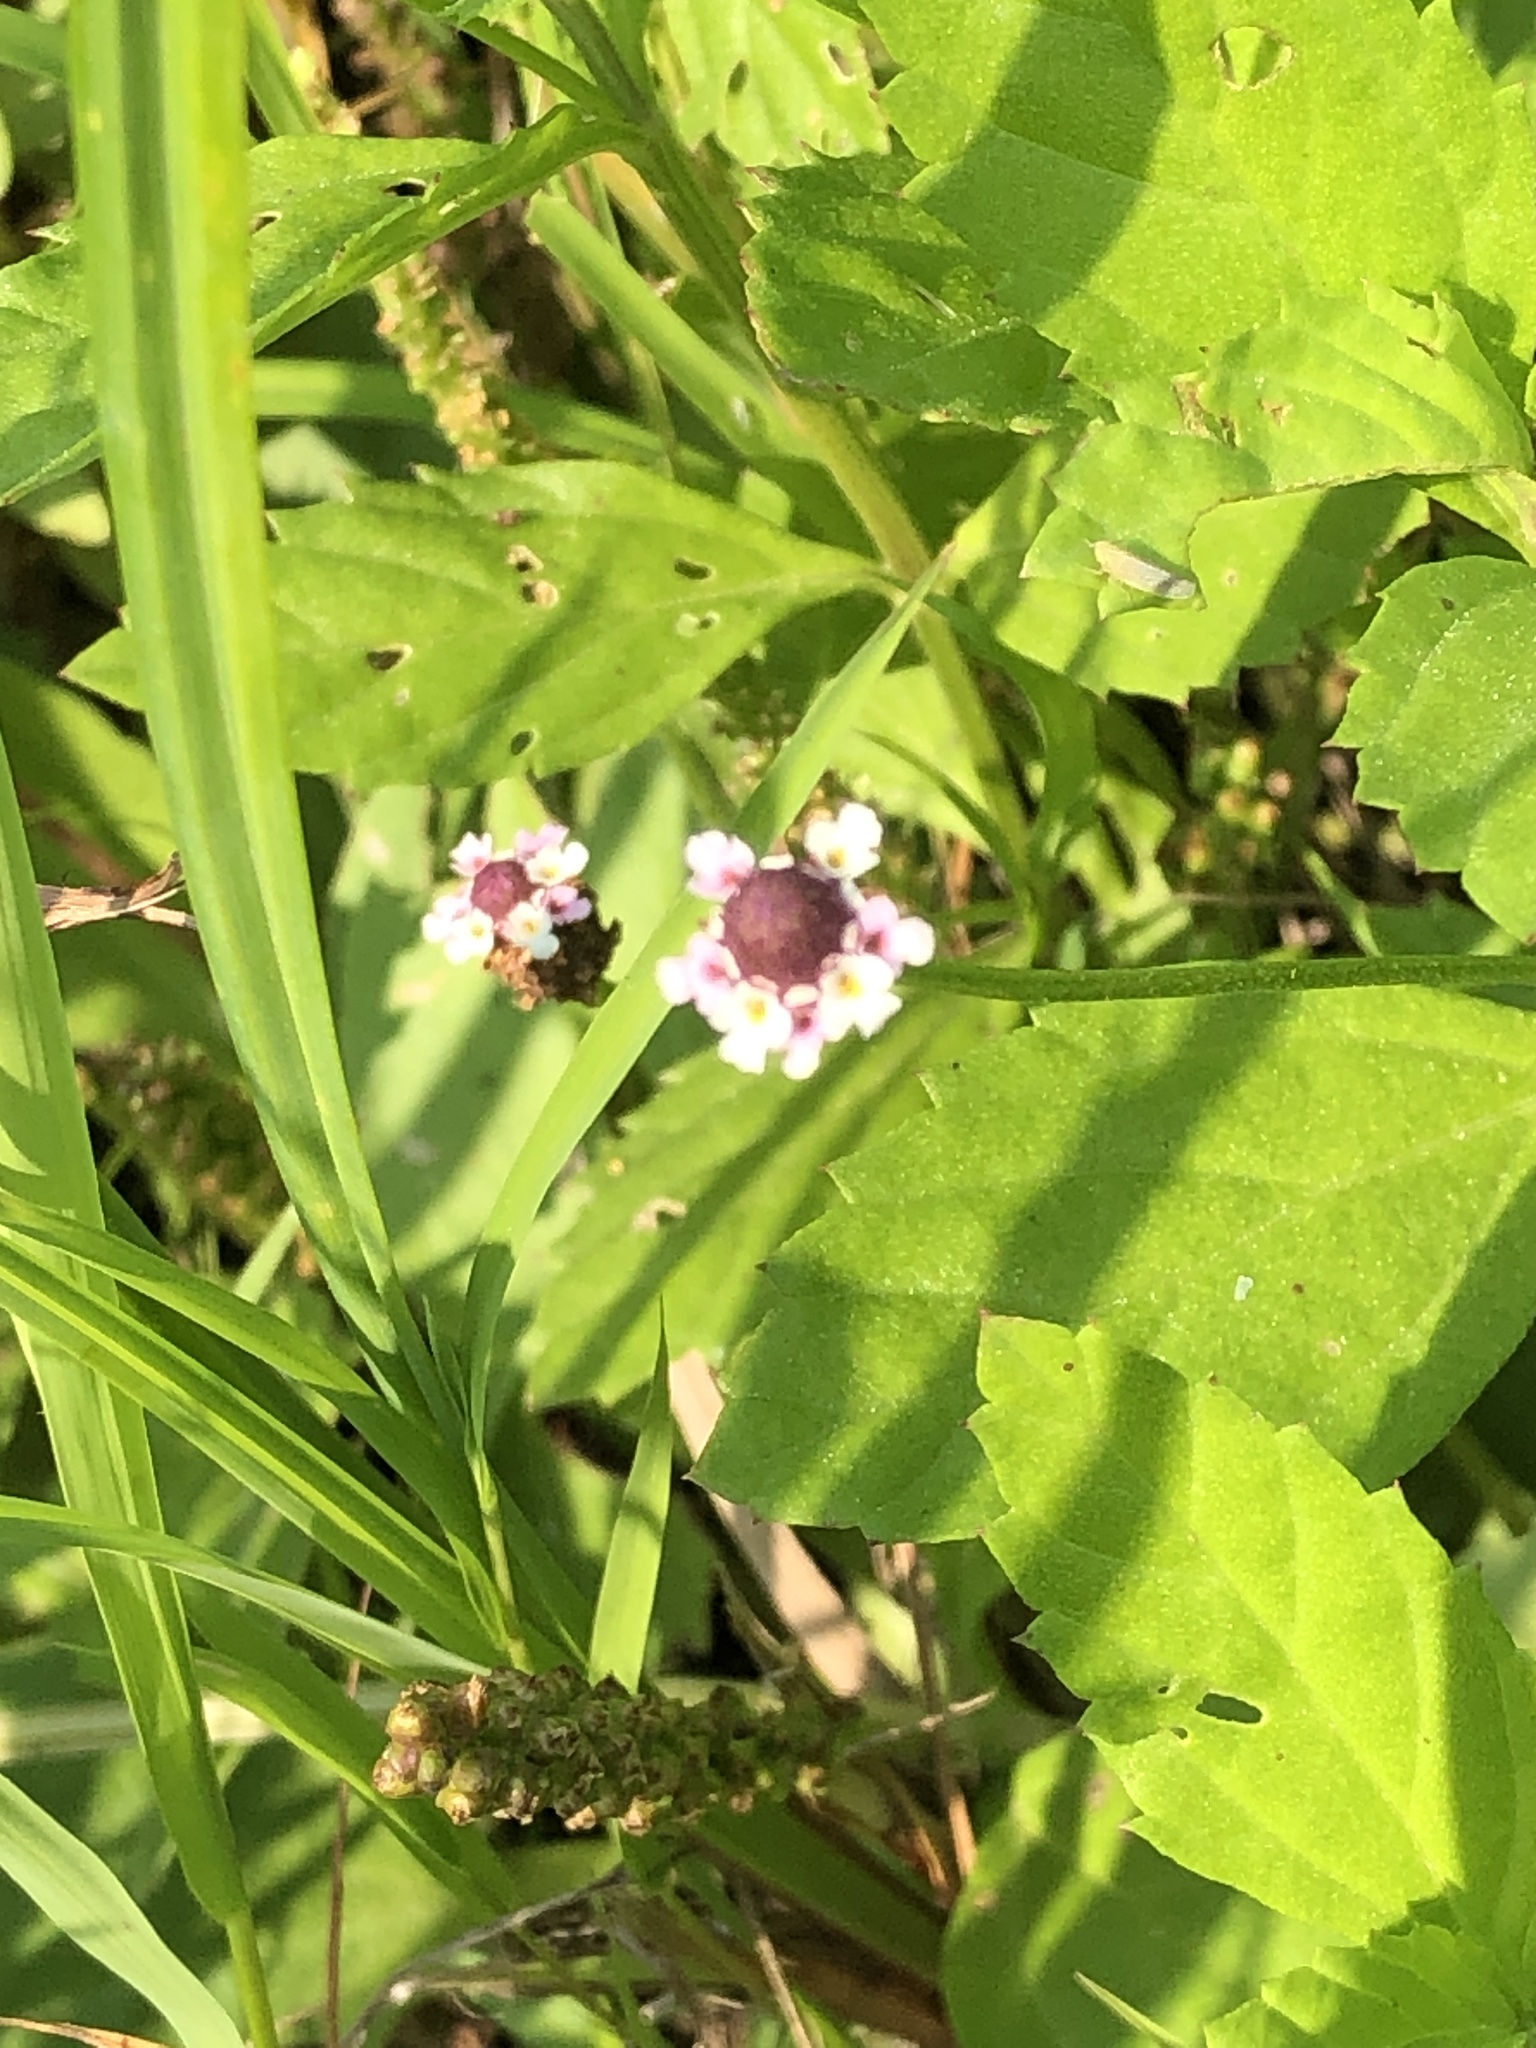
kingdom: Plantae
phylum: Tracheophyta
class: Magnoliopsida
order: Lamiales
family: Verbenaceae
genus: Phyla
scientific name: Phyla lanceolata
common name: Northern fogfruit
